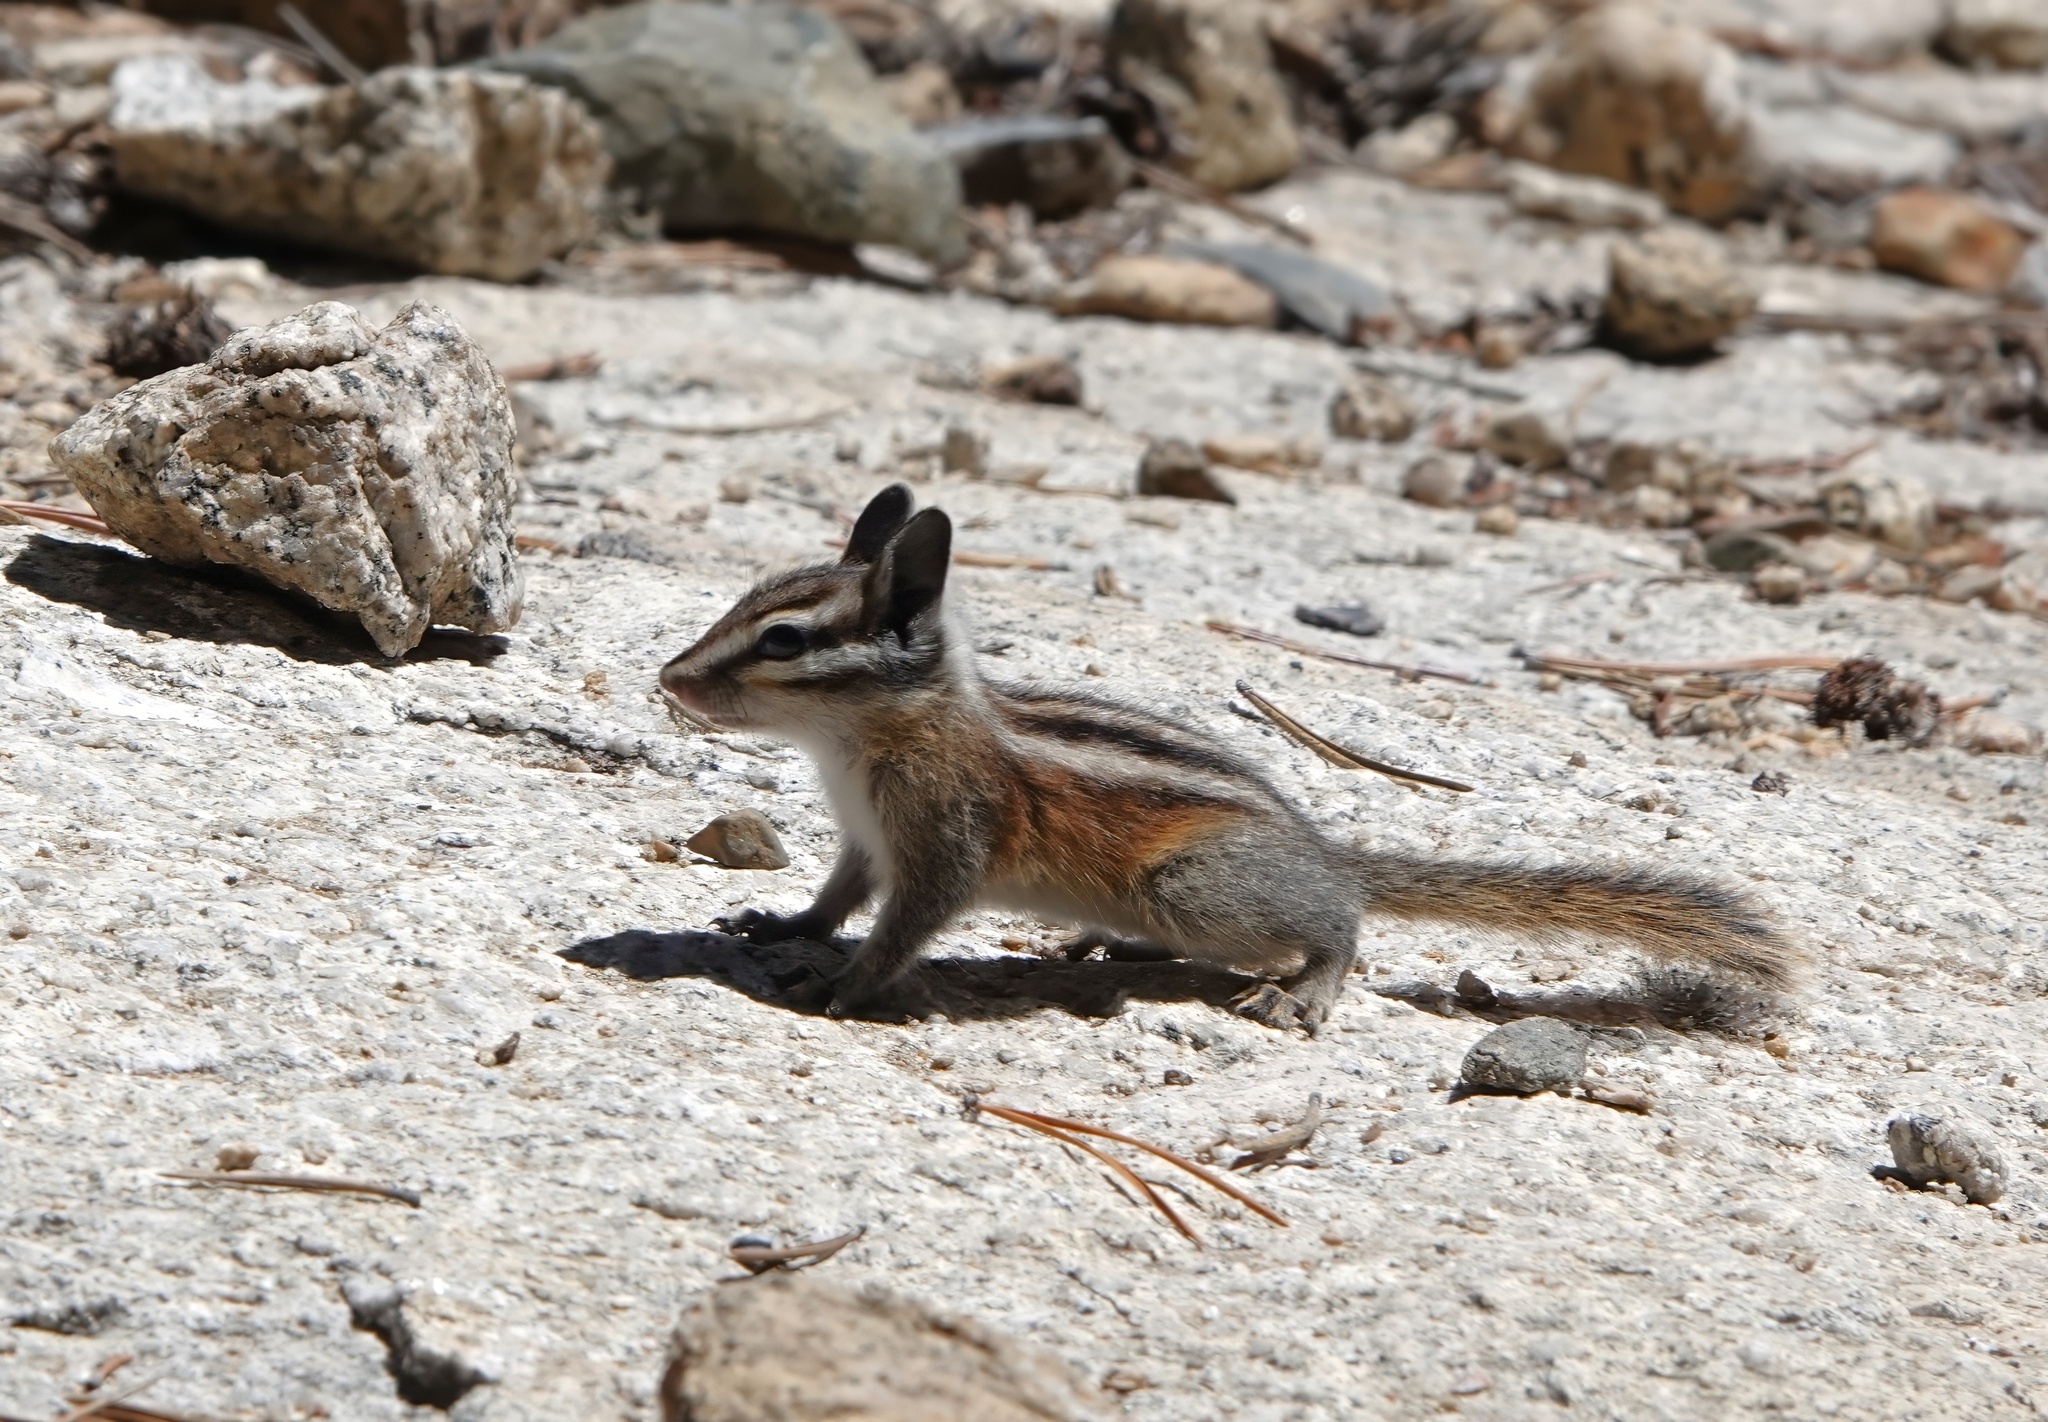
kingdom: Animalia
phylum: Chordata
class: Mammalia
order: Rodentia
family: Sciuridae
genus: Tamias
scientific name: Tamias speciosus
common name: Lodgepole chipmunk
